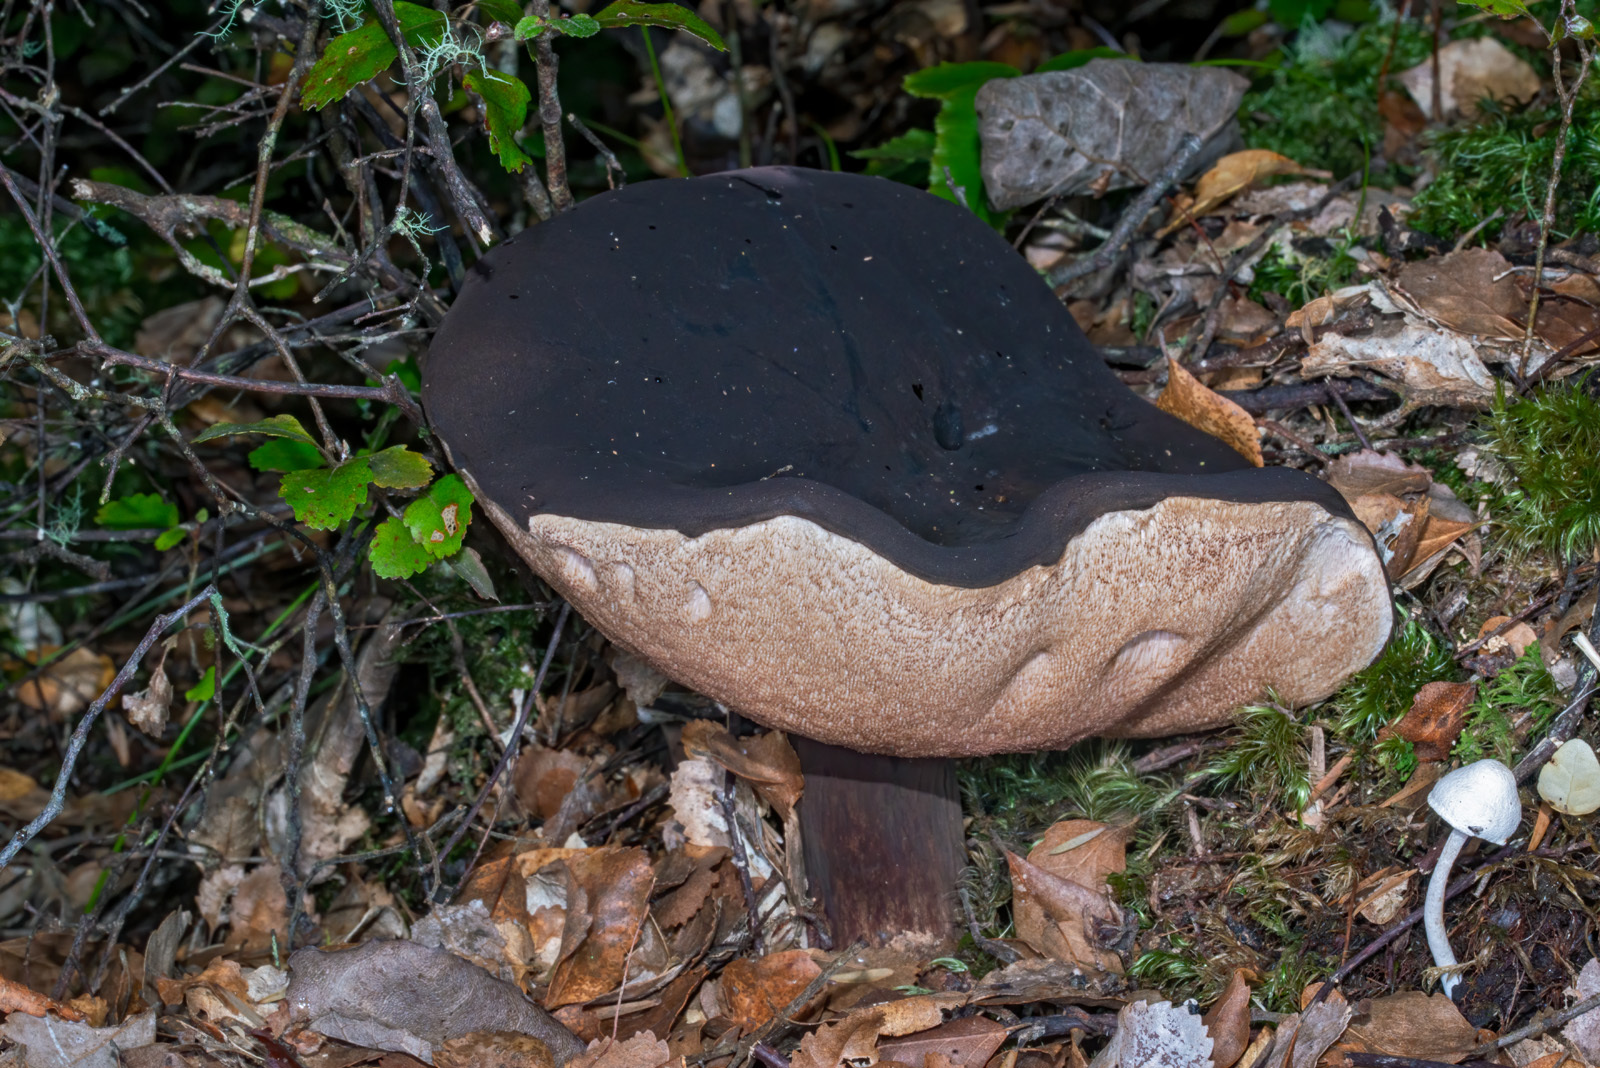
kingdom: Fungi
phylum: Basidiomycota
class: Agaricomycetes
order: Boletales
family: Boletaceae
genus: Porphyrellus
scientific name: Porphyrellus formosus
